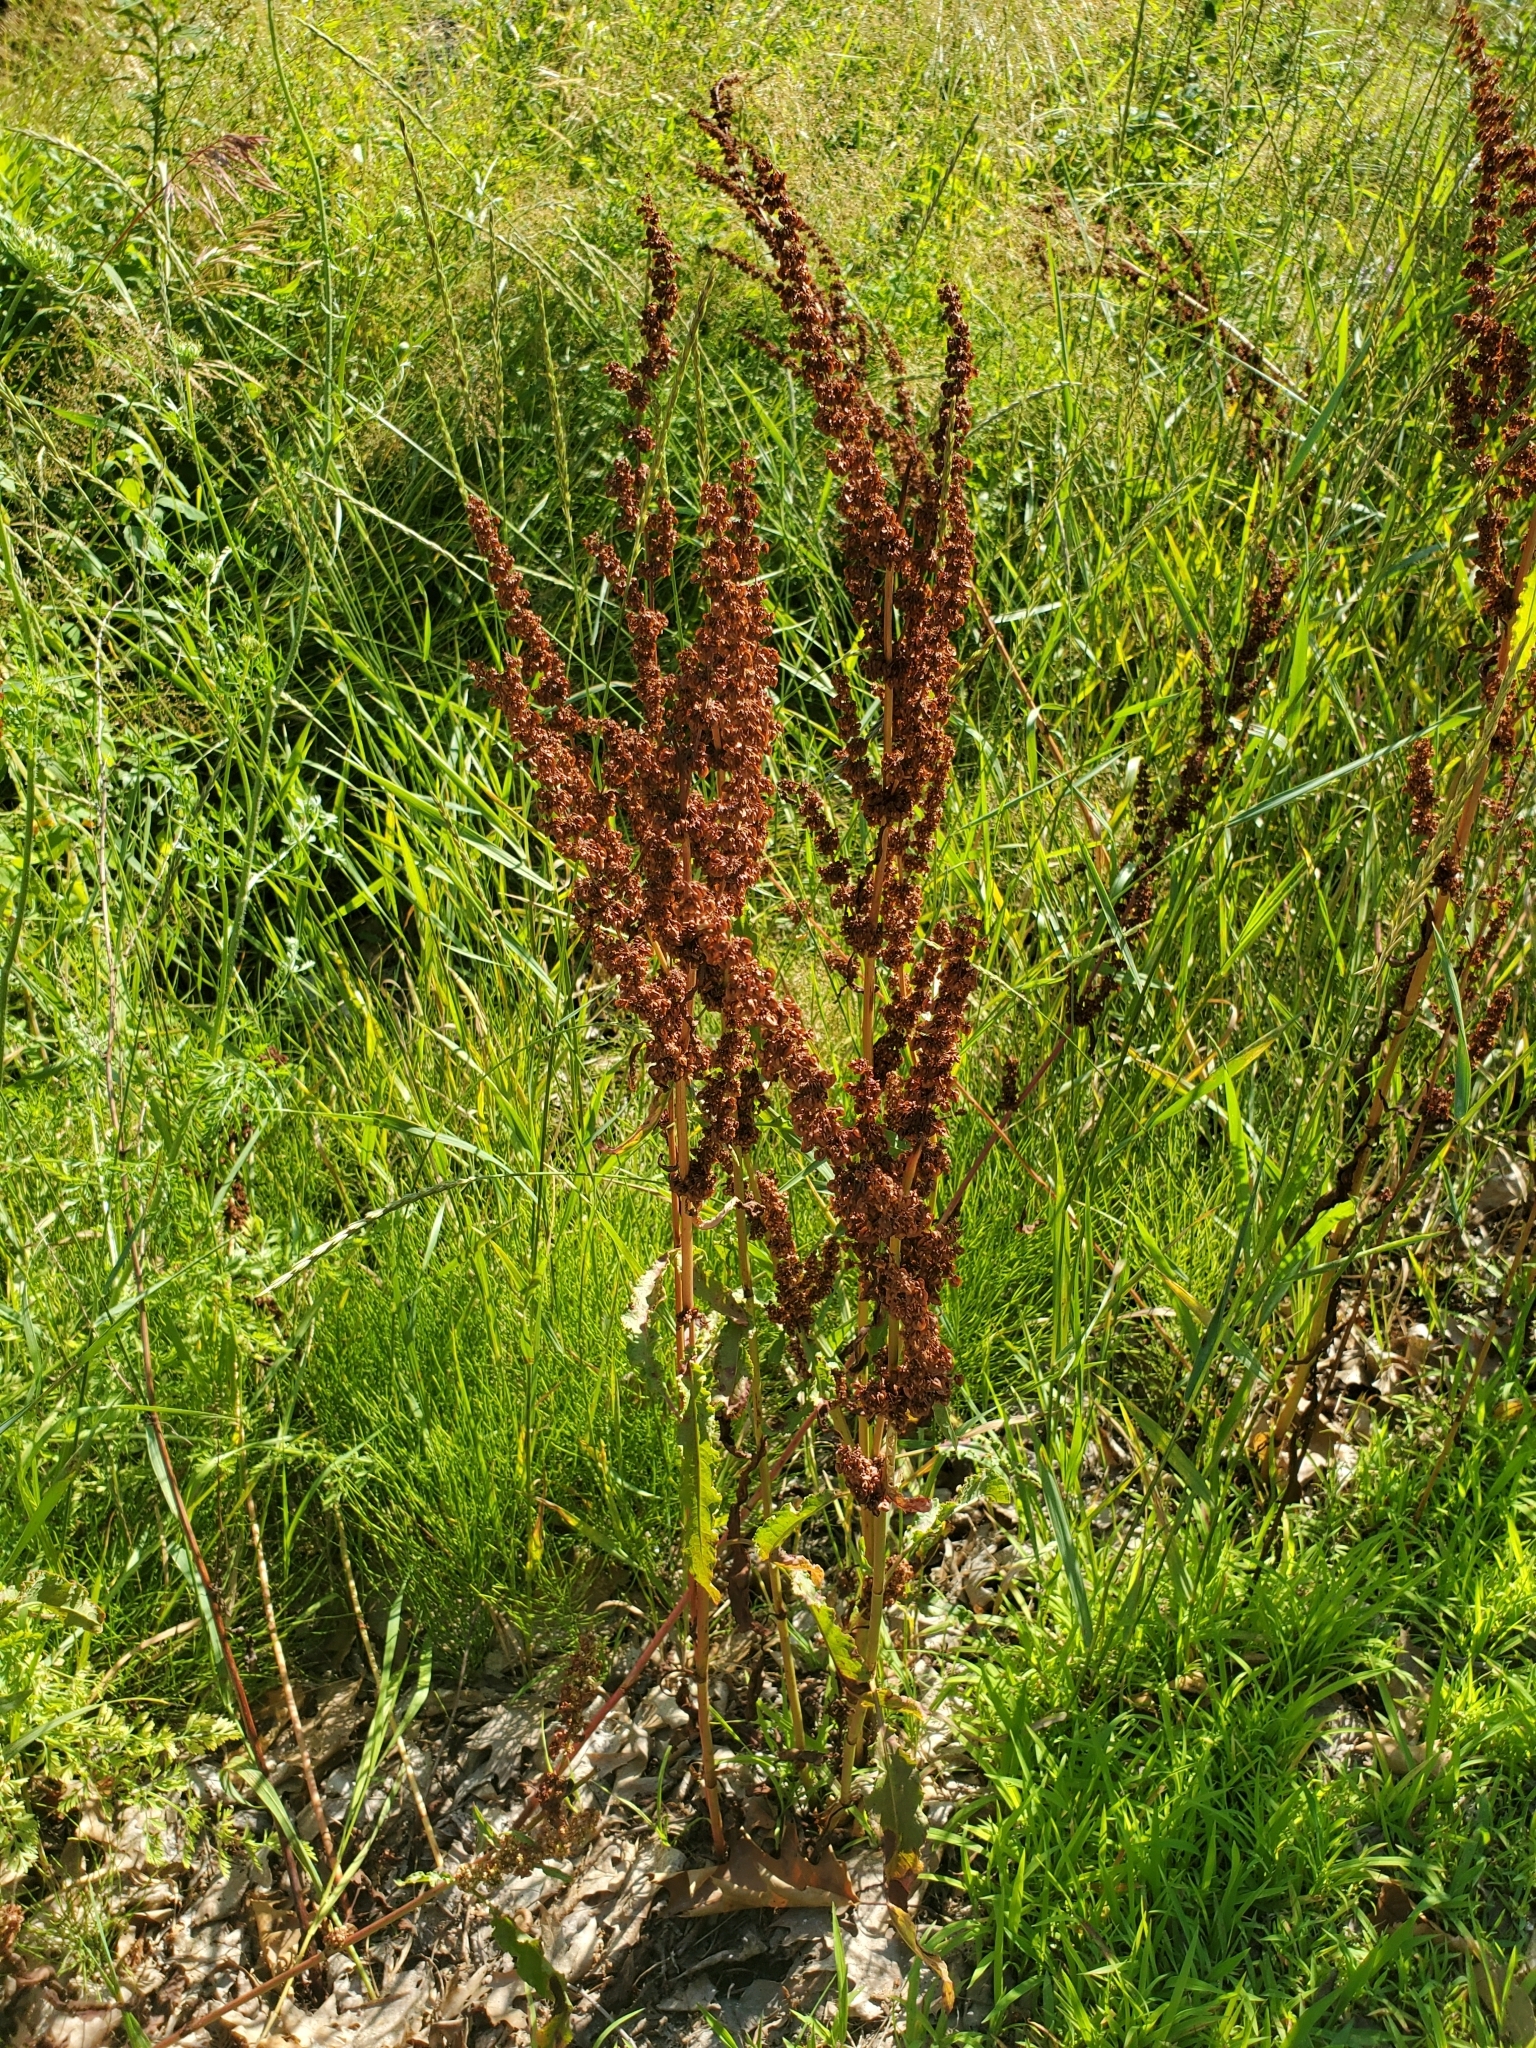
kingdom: Plantae
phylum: Tracheophyta
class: Magnoliopsida
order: Caryophyllales
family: Polygonaceae
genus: Rumex
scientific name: Rumex crispus
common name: Curled dock
